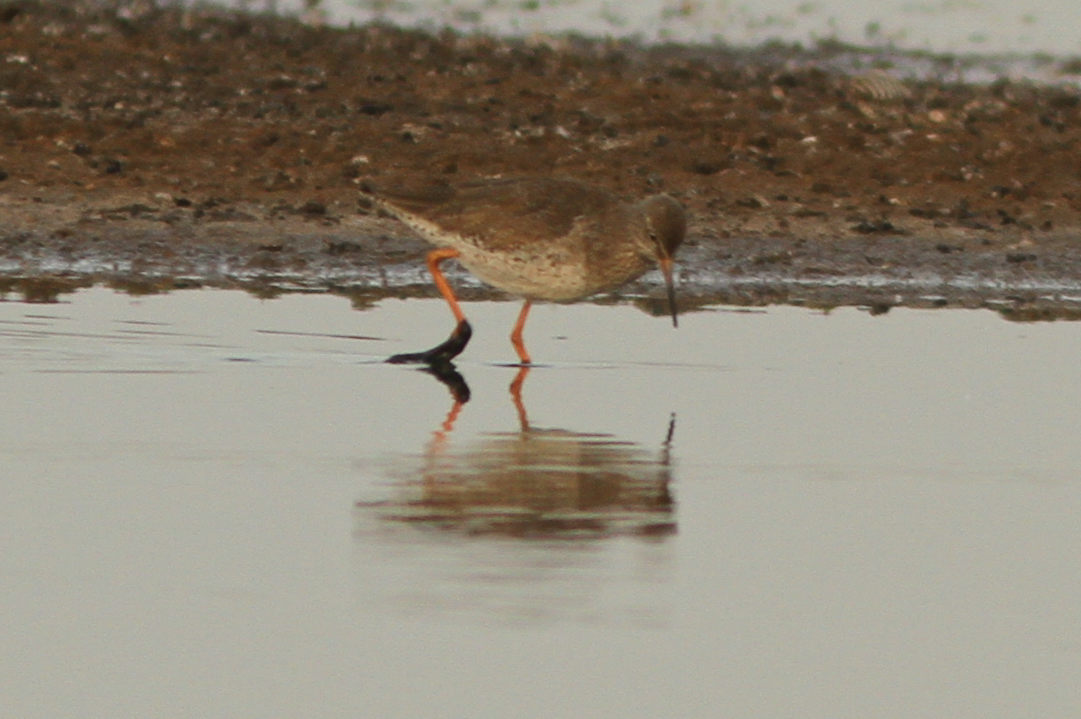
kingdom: Animalia
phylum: Chordata
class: Aves
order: Charadriiformes
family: Scolopacidae
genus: Tringa
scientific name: Tringa totanus
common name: Common redshank
